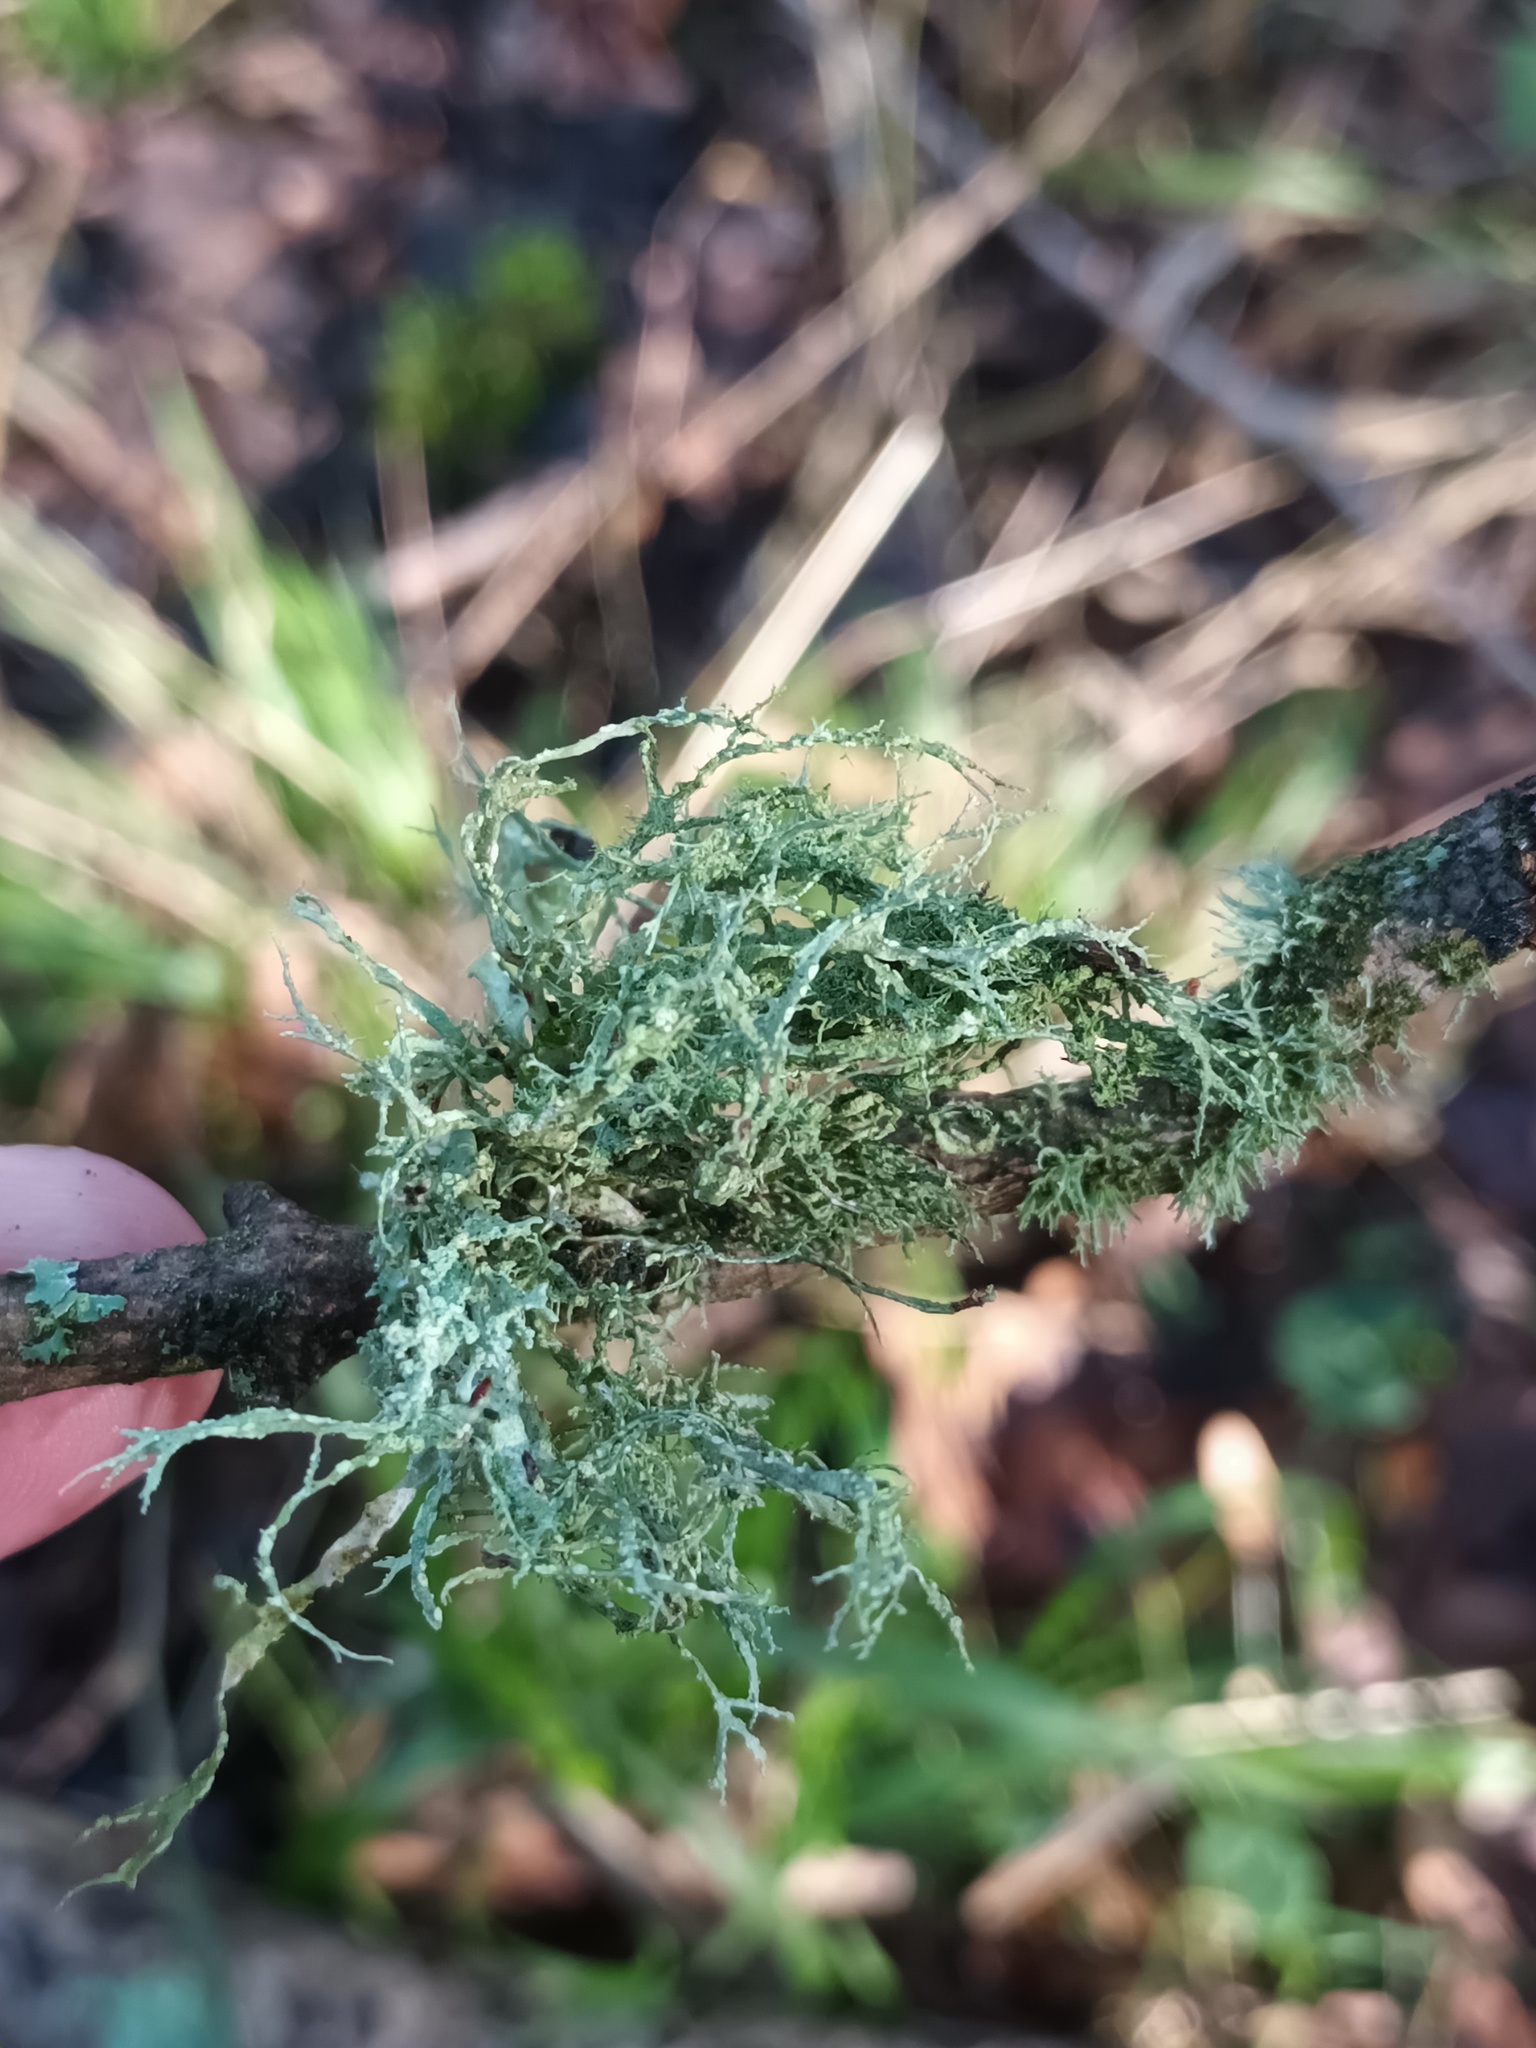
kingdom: Fungi
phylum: Ascomycota
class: Lecanoromycetes
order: Lecanorales
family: Ramalinaceae
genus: Ramalina
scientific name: Ramalina farinacea
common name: Farinose cartilage lichen
